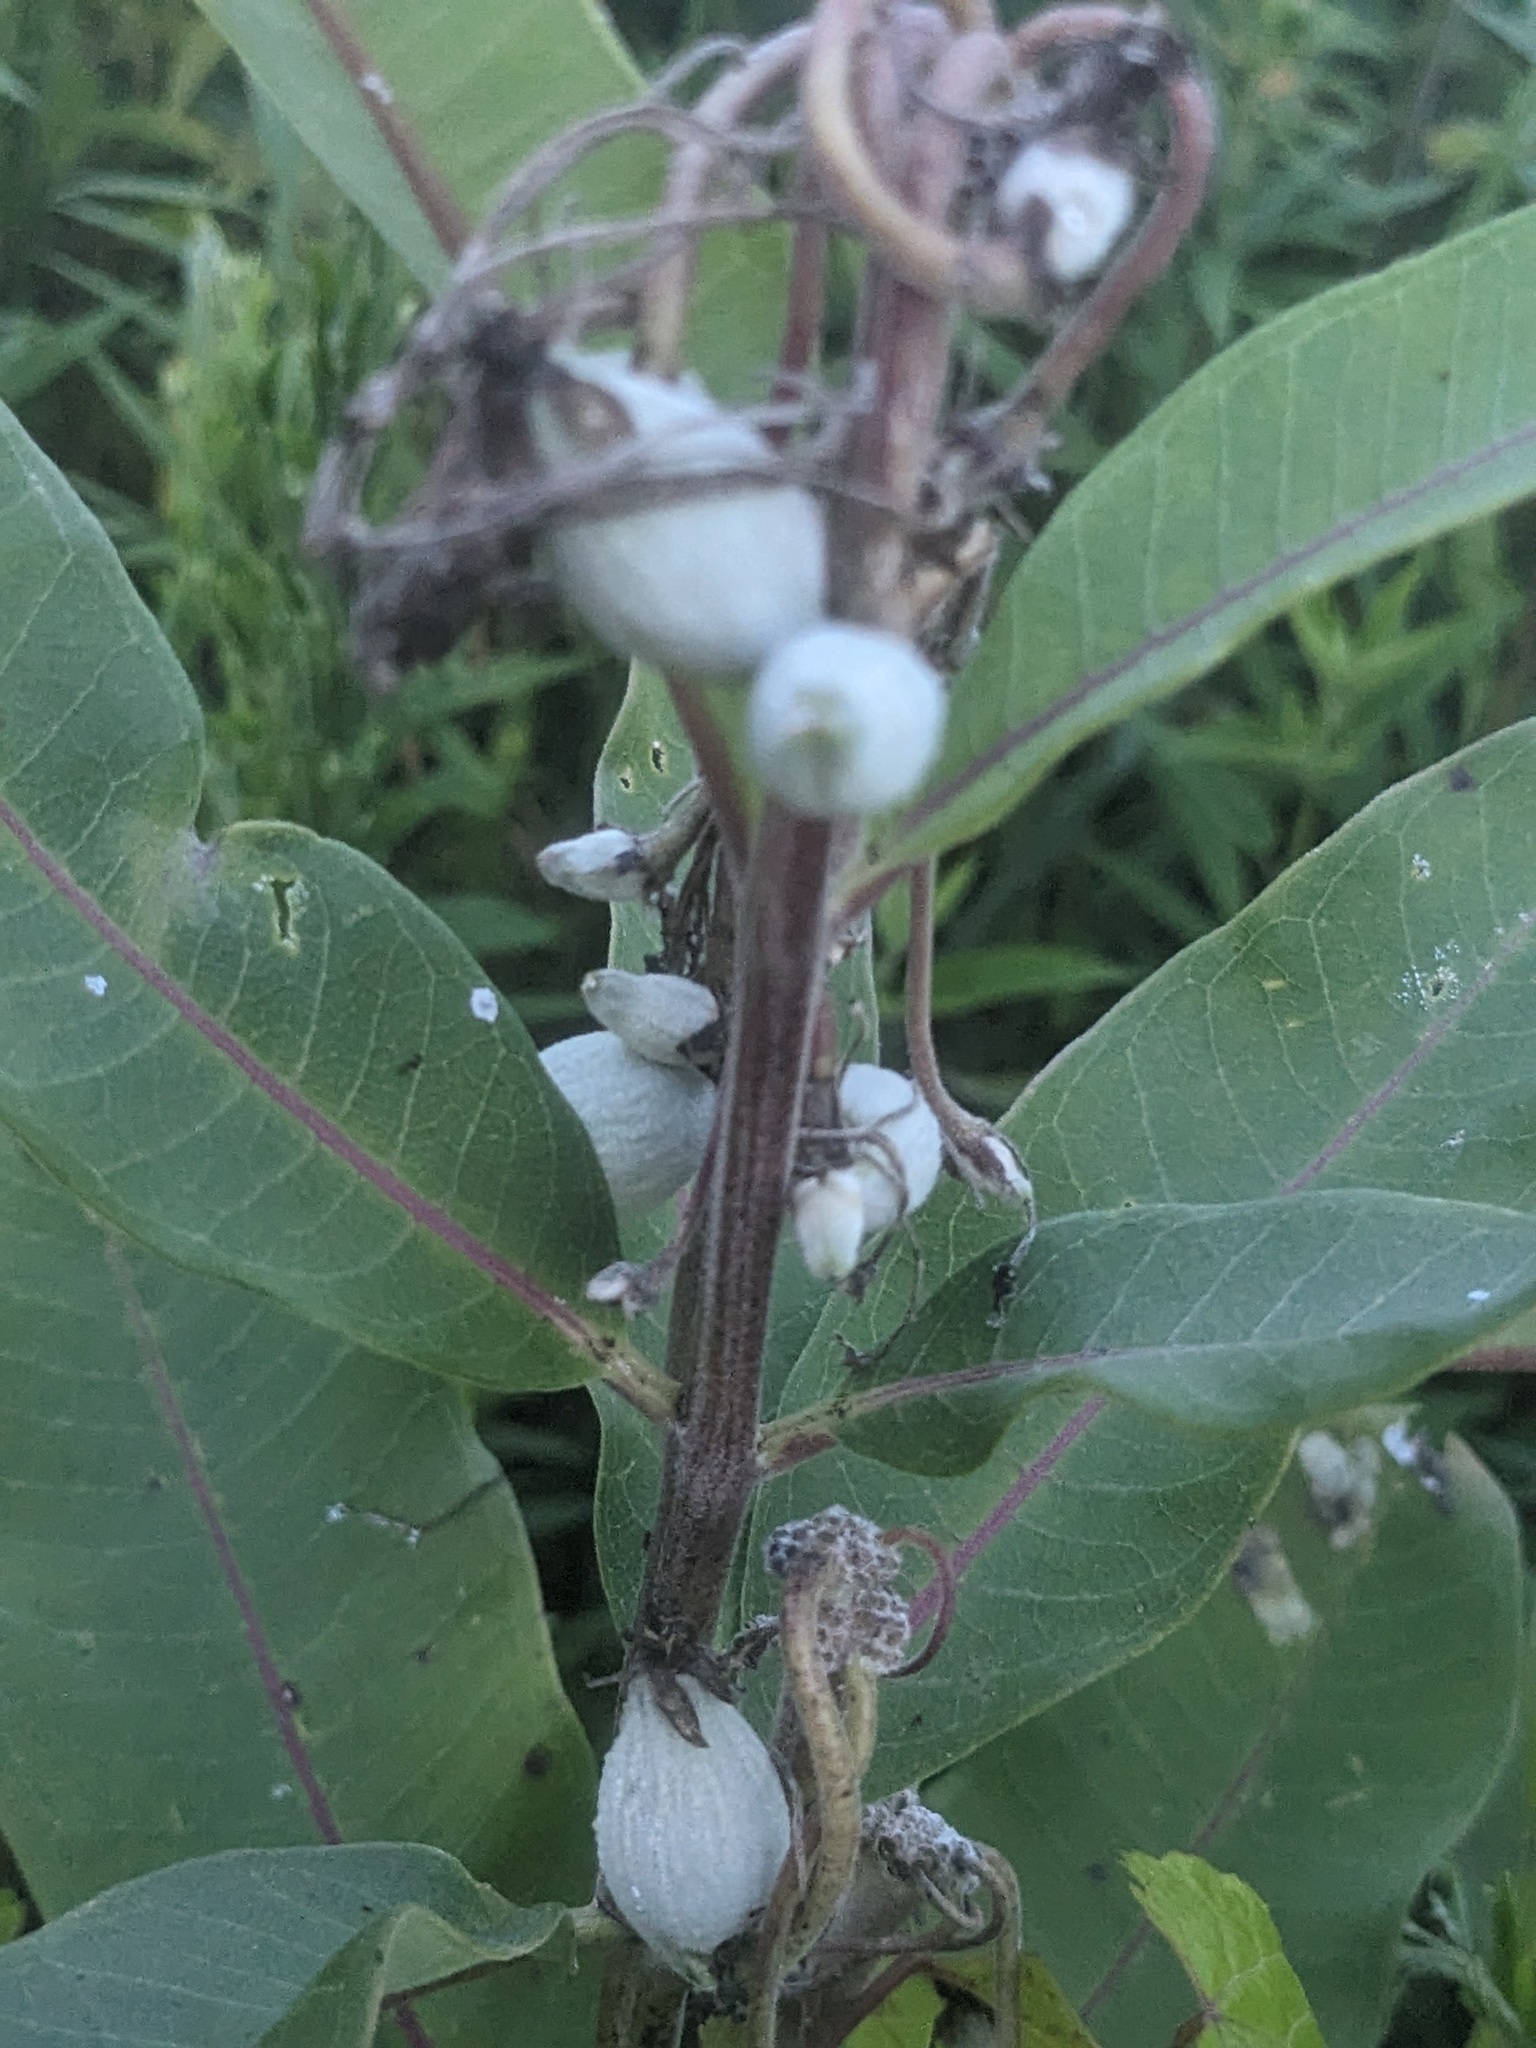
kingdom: Plantae
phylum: Tracheophyta
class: Magnoliopsida
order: Gentianales
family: Apocynaceae
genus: Asclepias
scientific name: Asclepias syriaca
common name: Common milkweed
